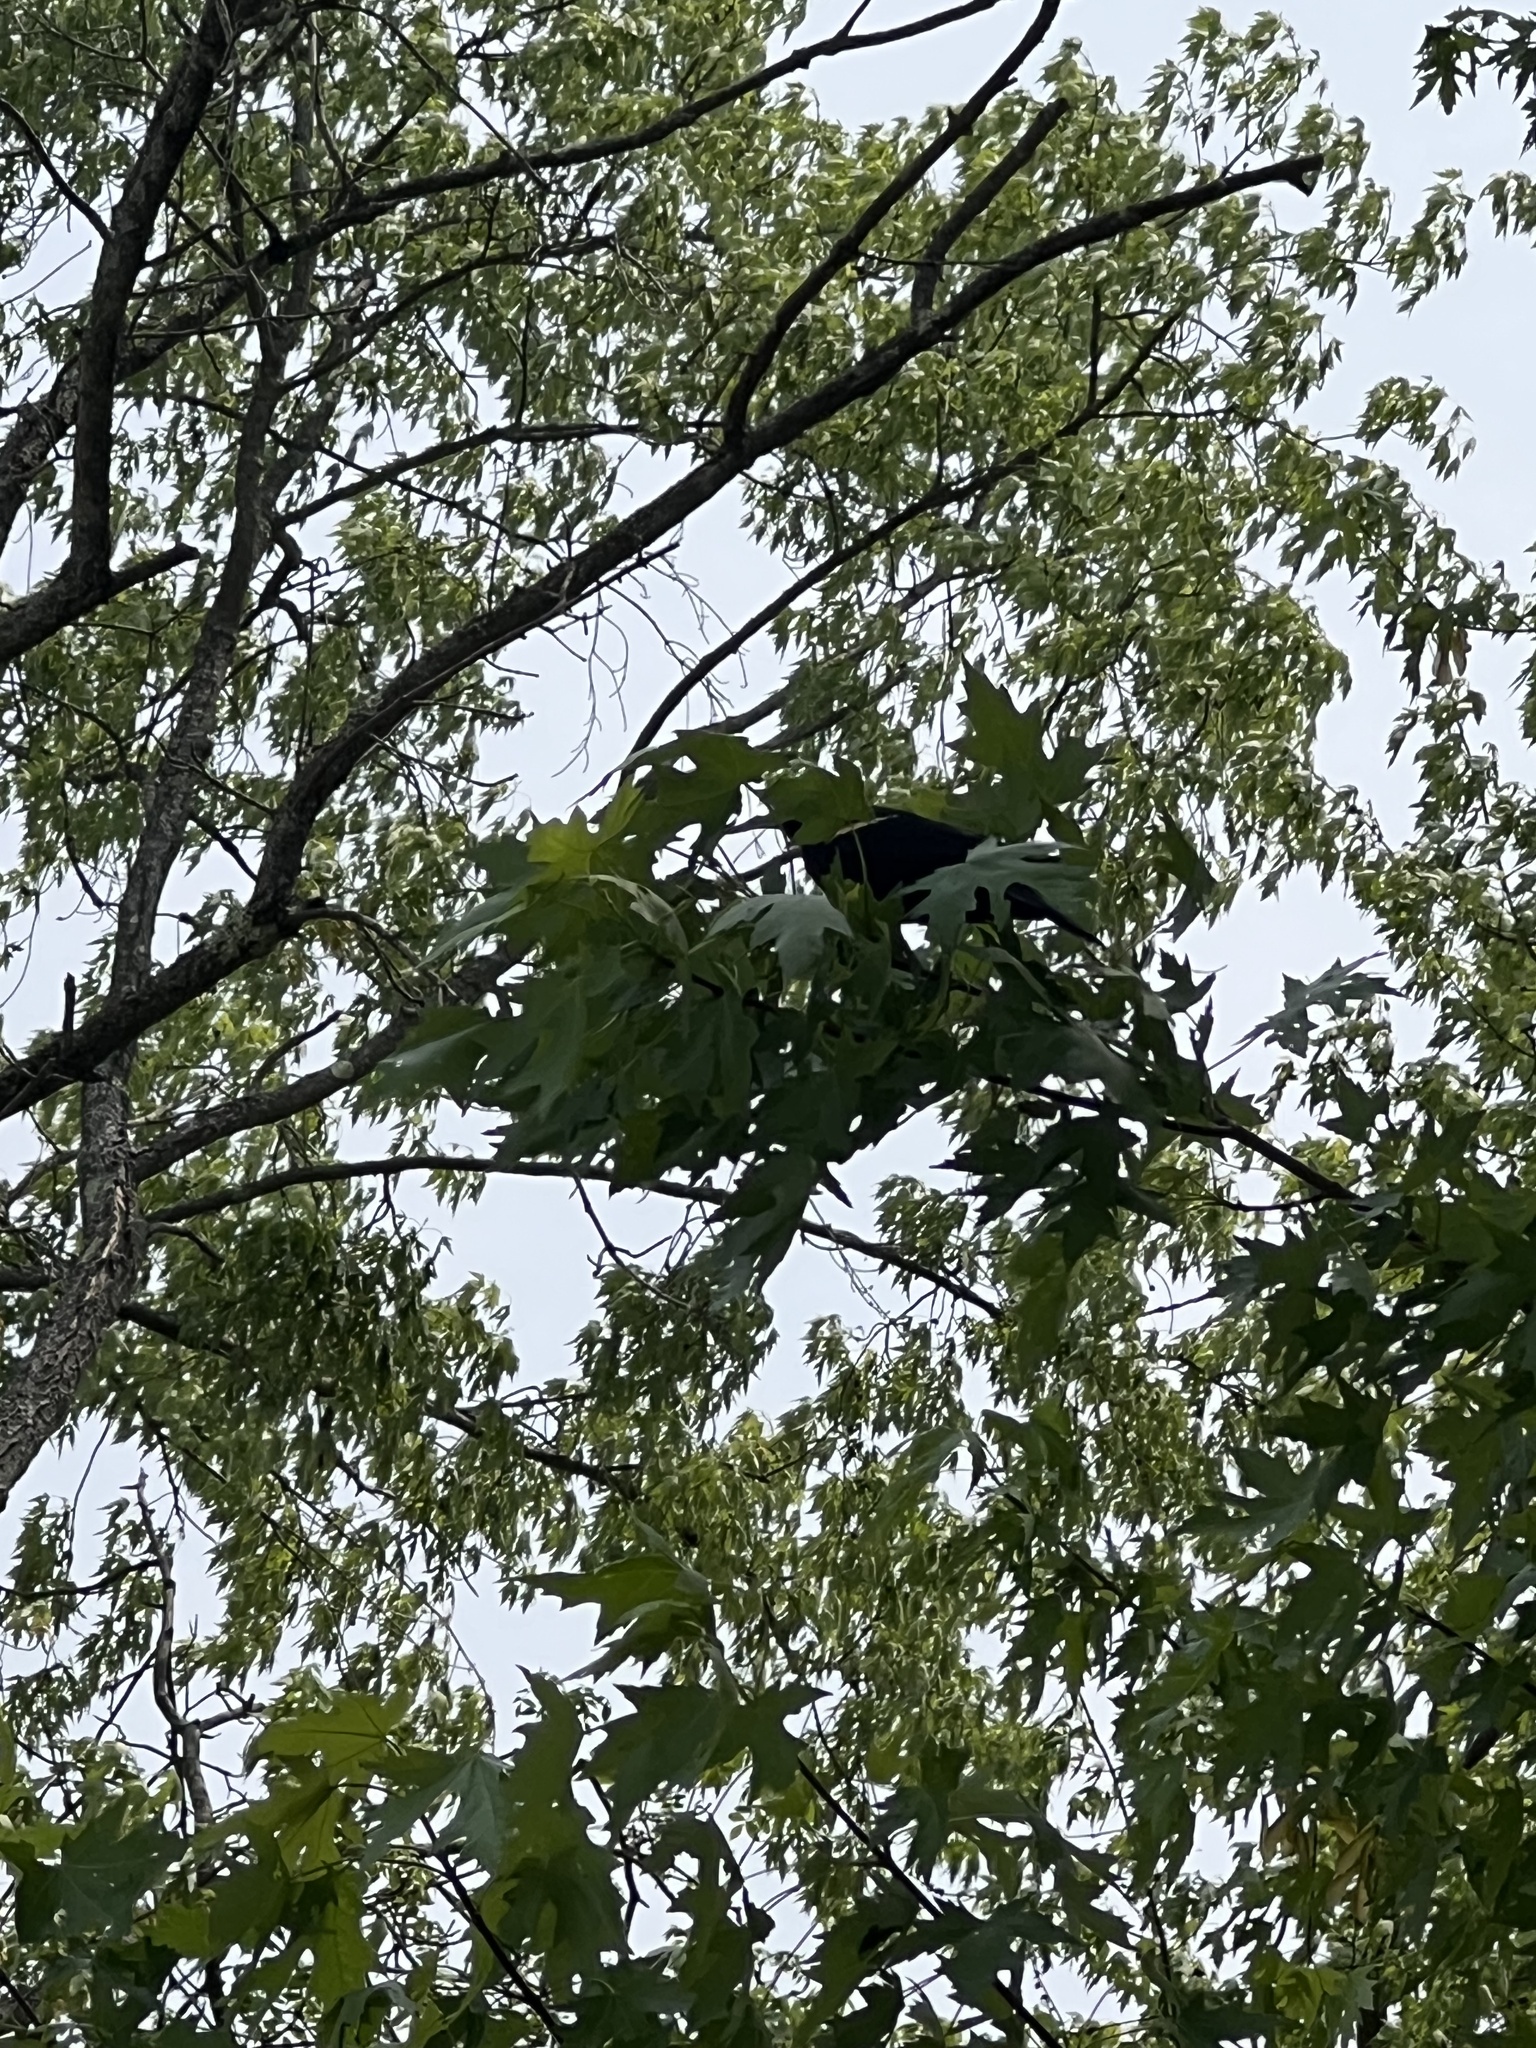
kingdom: Animalia
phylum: Chordata
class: Aves
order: Passeriformes
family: Icteridae
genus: Agelaius
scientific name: Agelaius phoeniceus
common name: Red-winged blackbird
